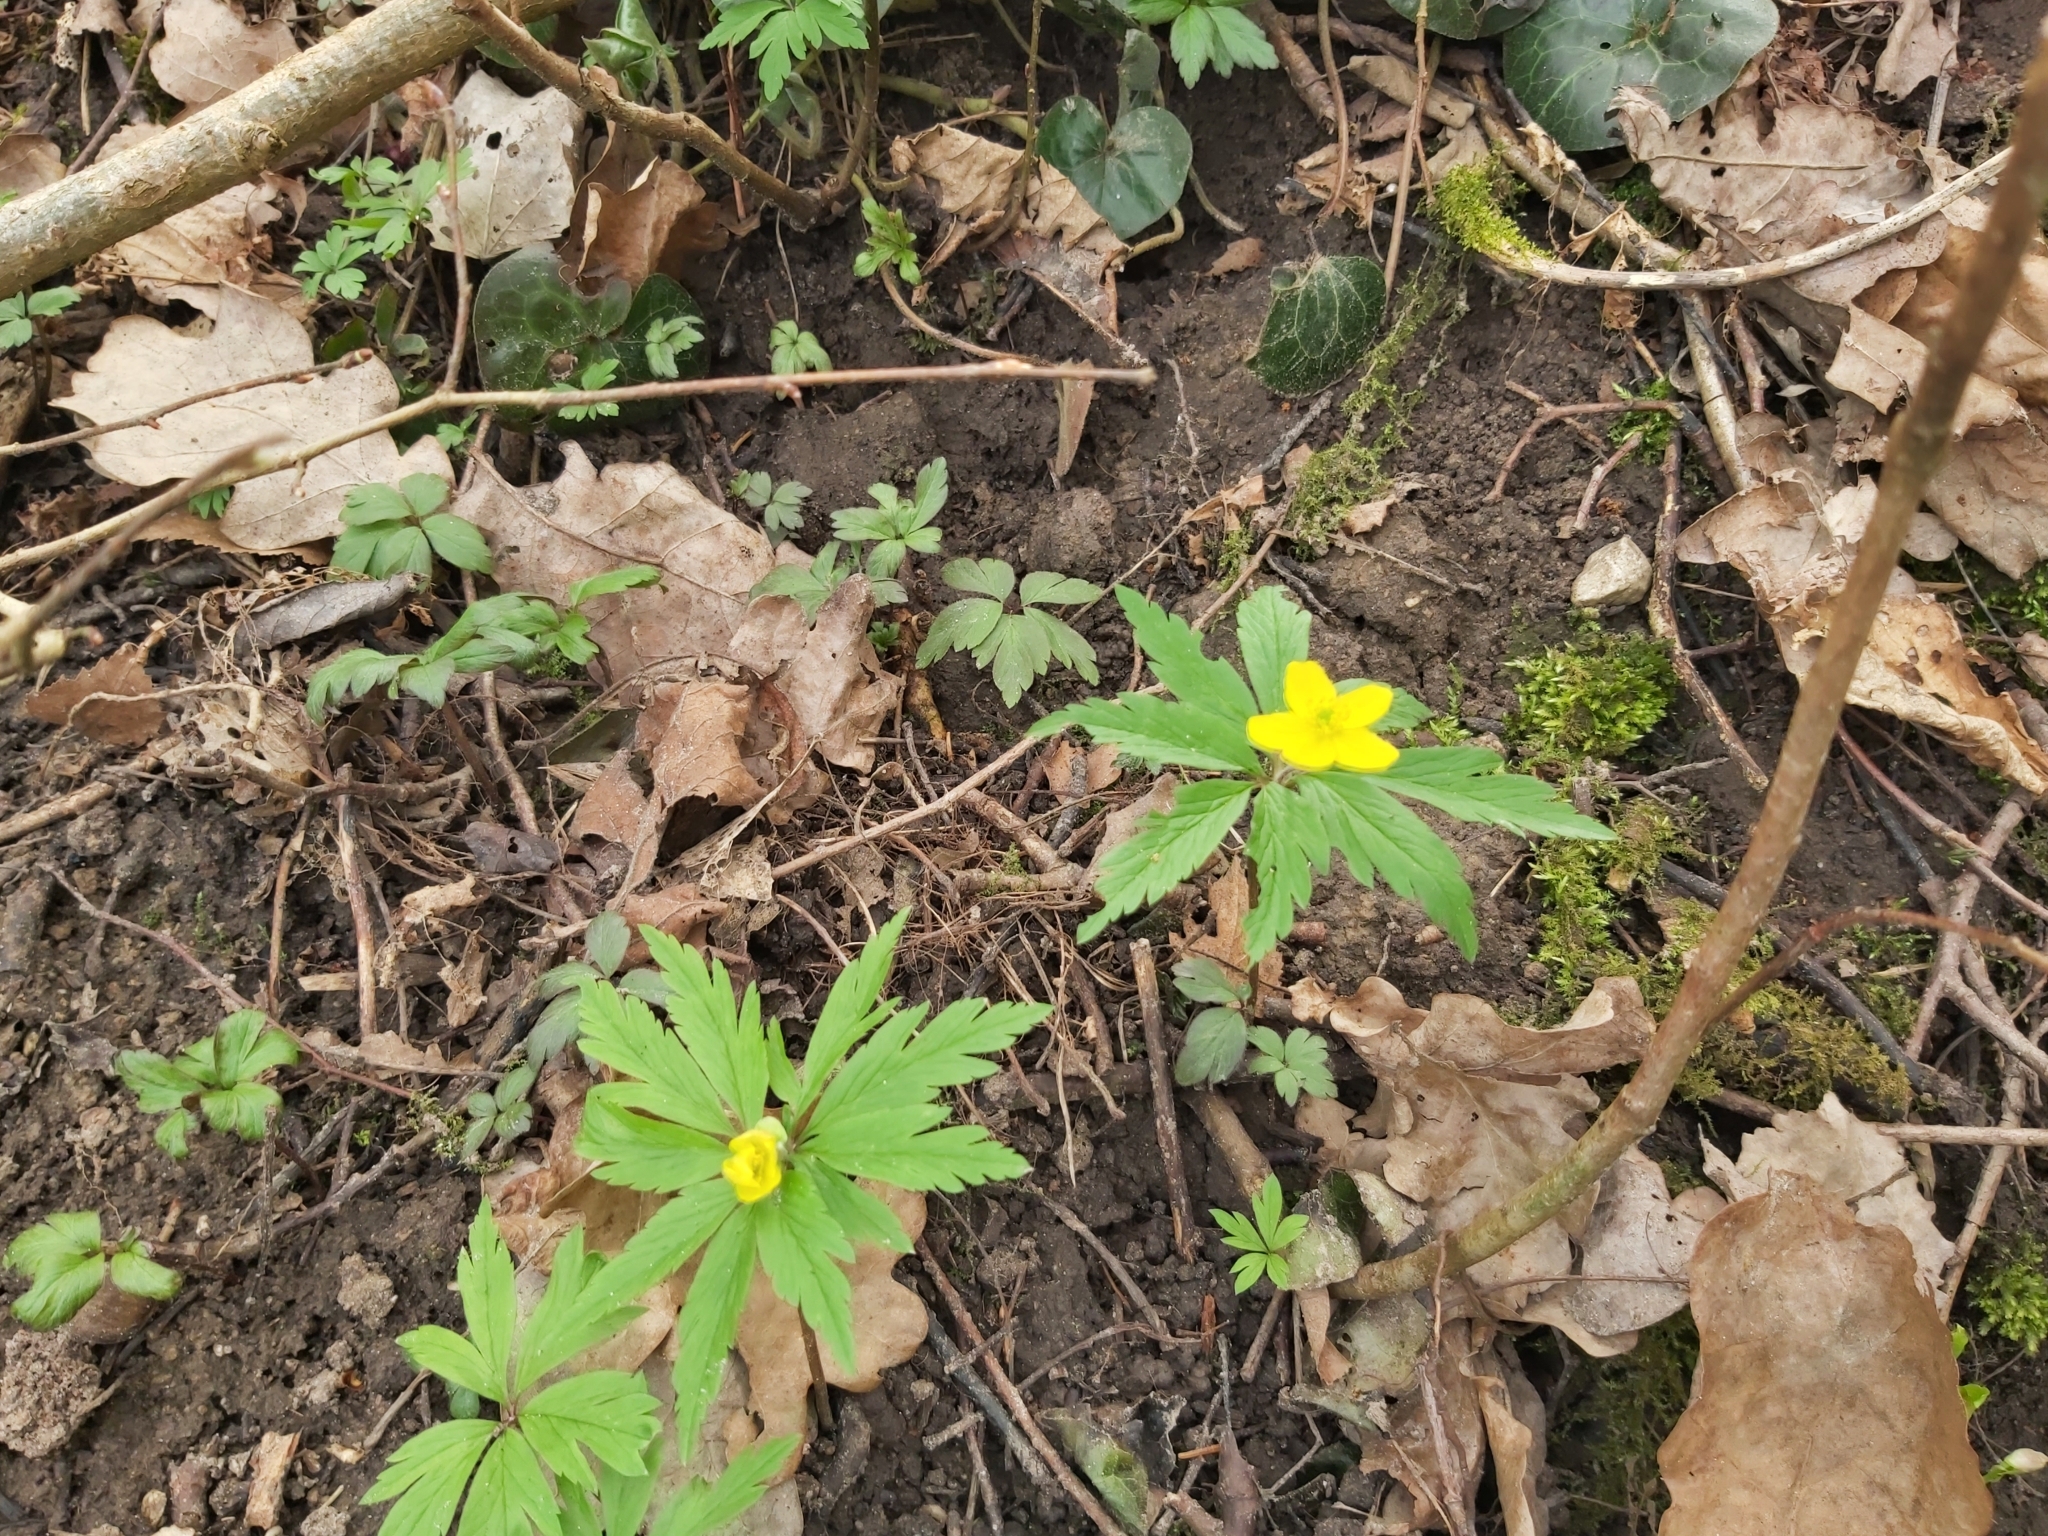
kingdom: Plantae
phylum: Tracheophyta
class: Magnoliopsida
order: Ranunculales
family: Ranunculaceae
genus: Anemone
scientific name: Anemone ranunculoides
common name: Yellow anemone
